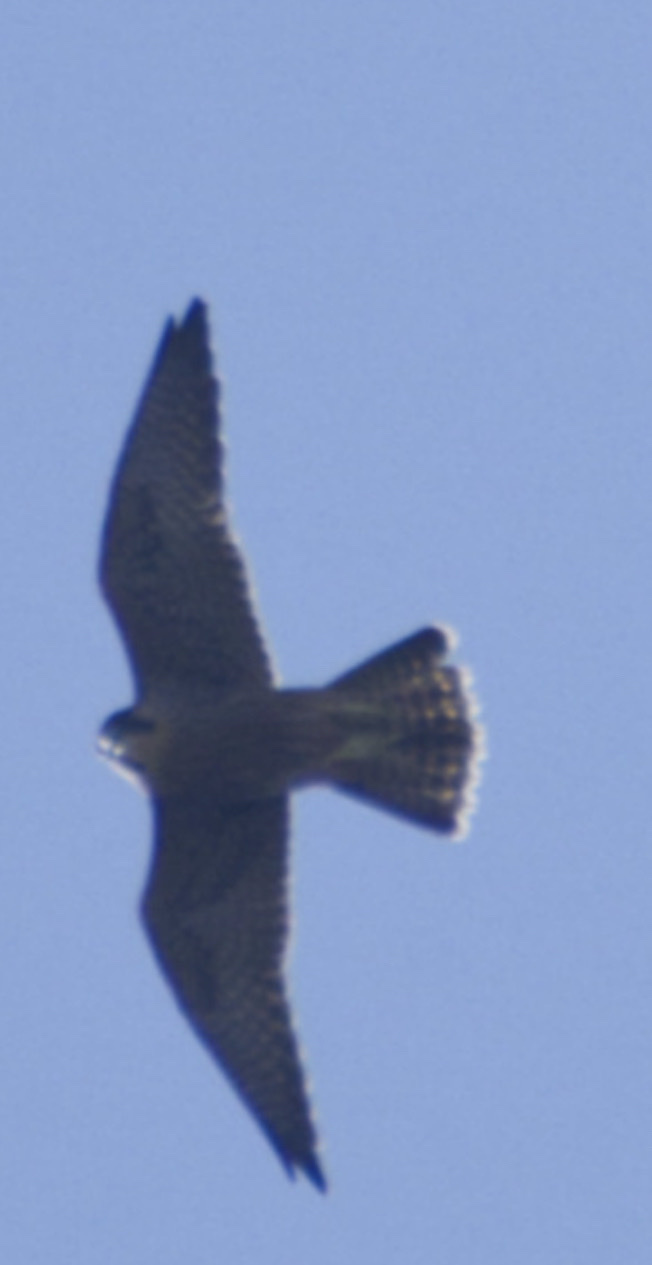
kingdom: Animalia
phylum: Chordata
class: Aves
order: Falconiformes
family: Falconidae
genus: Falco
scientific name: Falco peregrinus
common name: Peregrine falcon
